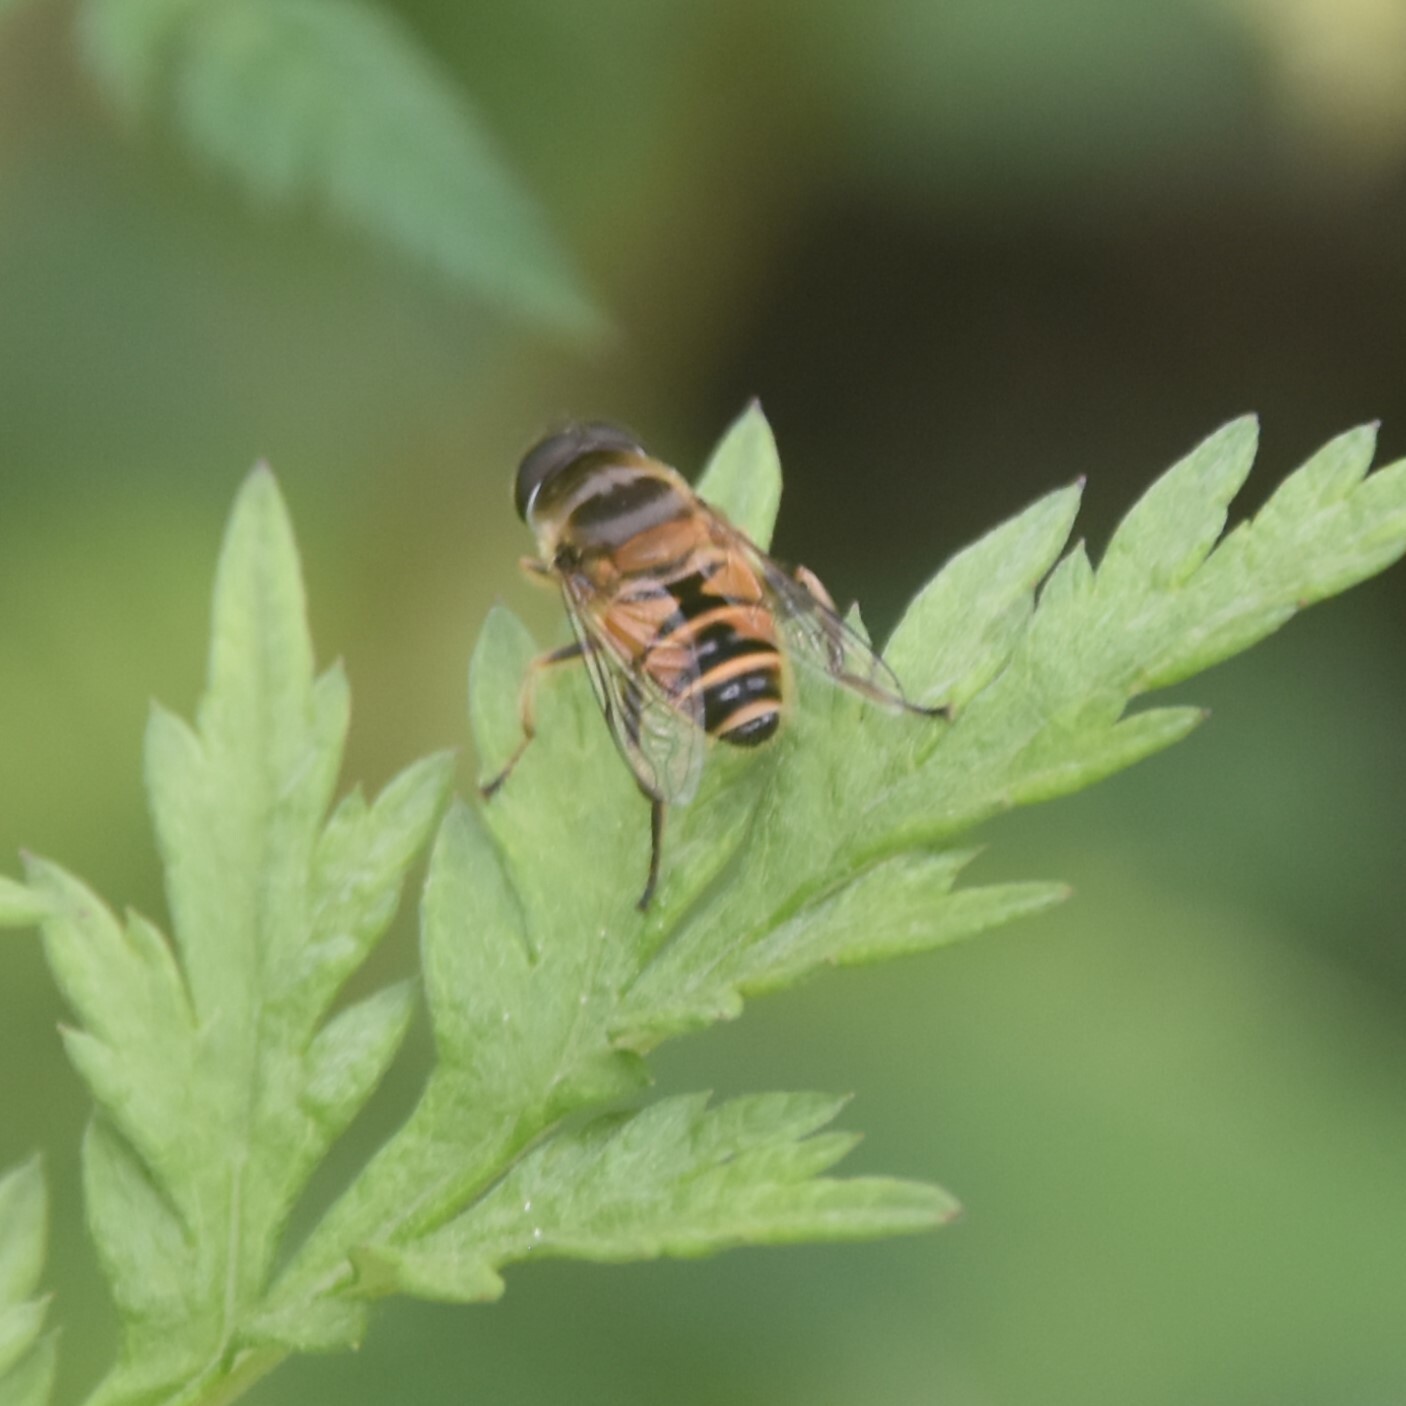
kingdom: Animalia
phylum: Arthropoda
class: Insecta
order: Diptera
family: Syrphidae
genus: Eristalis
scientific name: Eristalis cerealis
